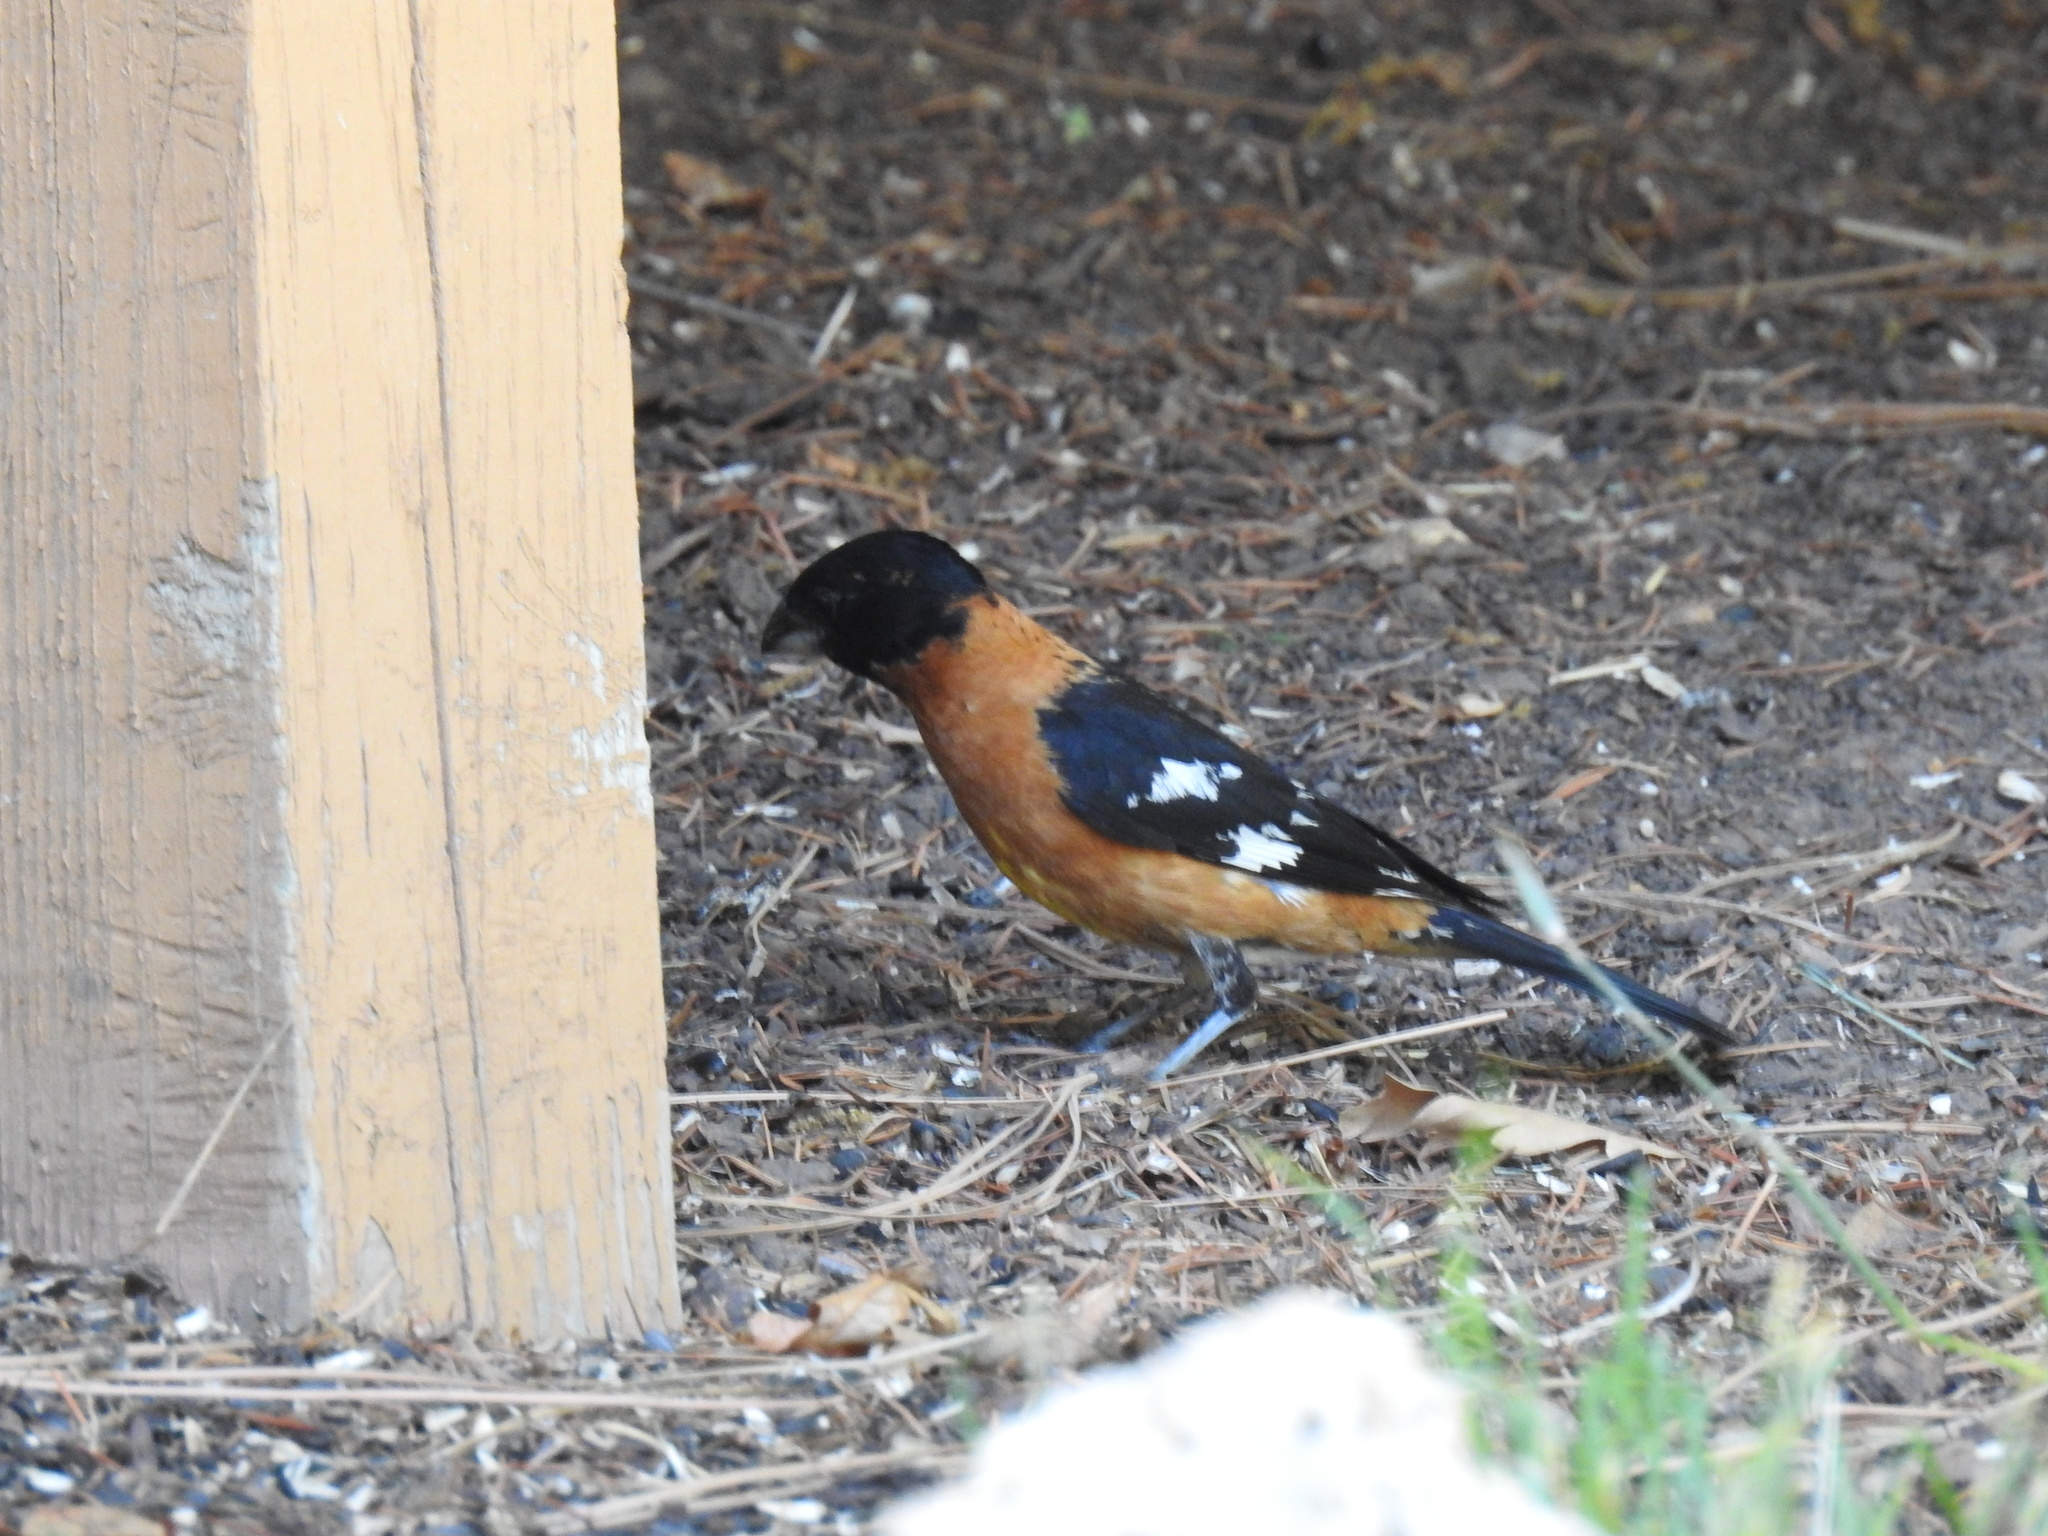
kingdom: Animalia
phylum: Chordata
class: Aves
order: Passeriformes
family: Cardinalidae
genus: Pheucticus
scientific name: Pheucticus melanocephalus
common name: Black-headed grosbeak
